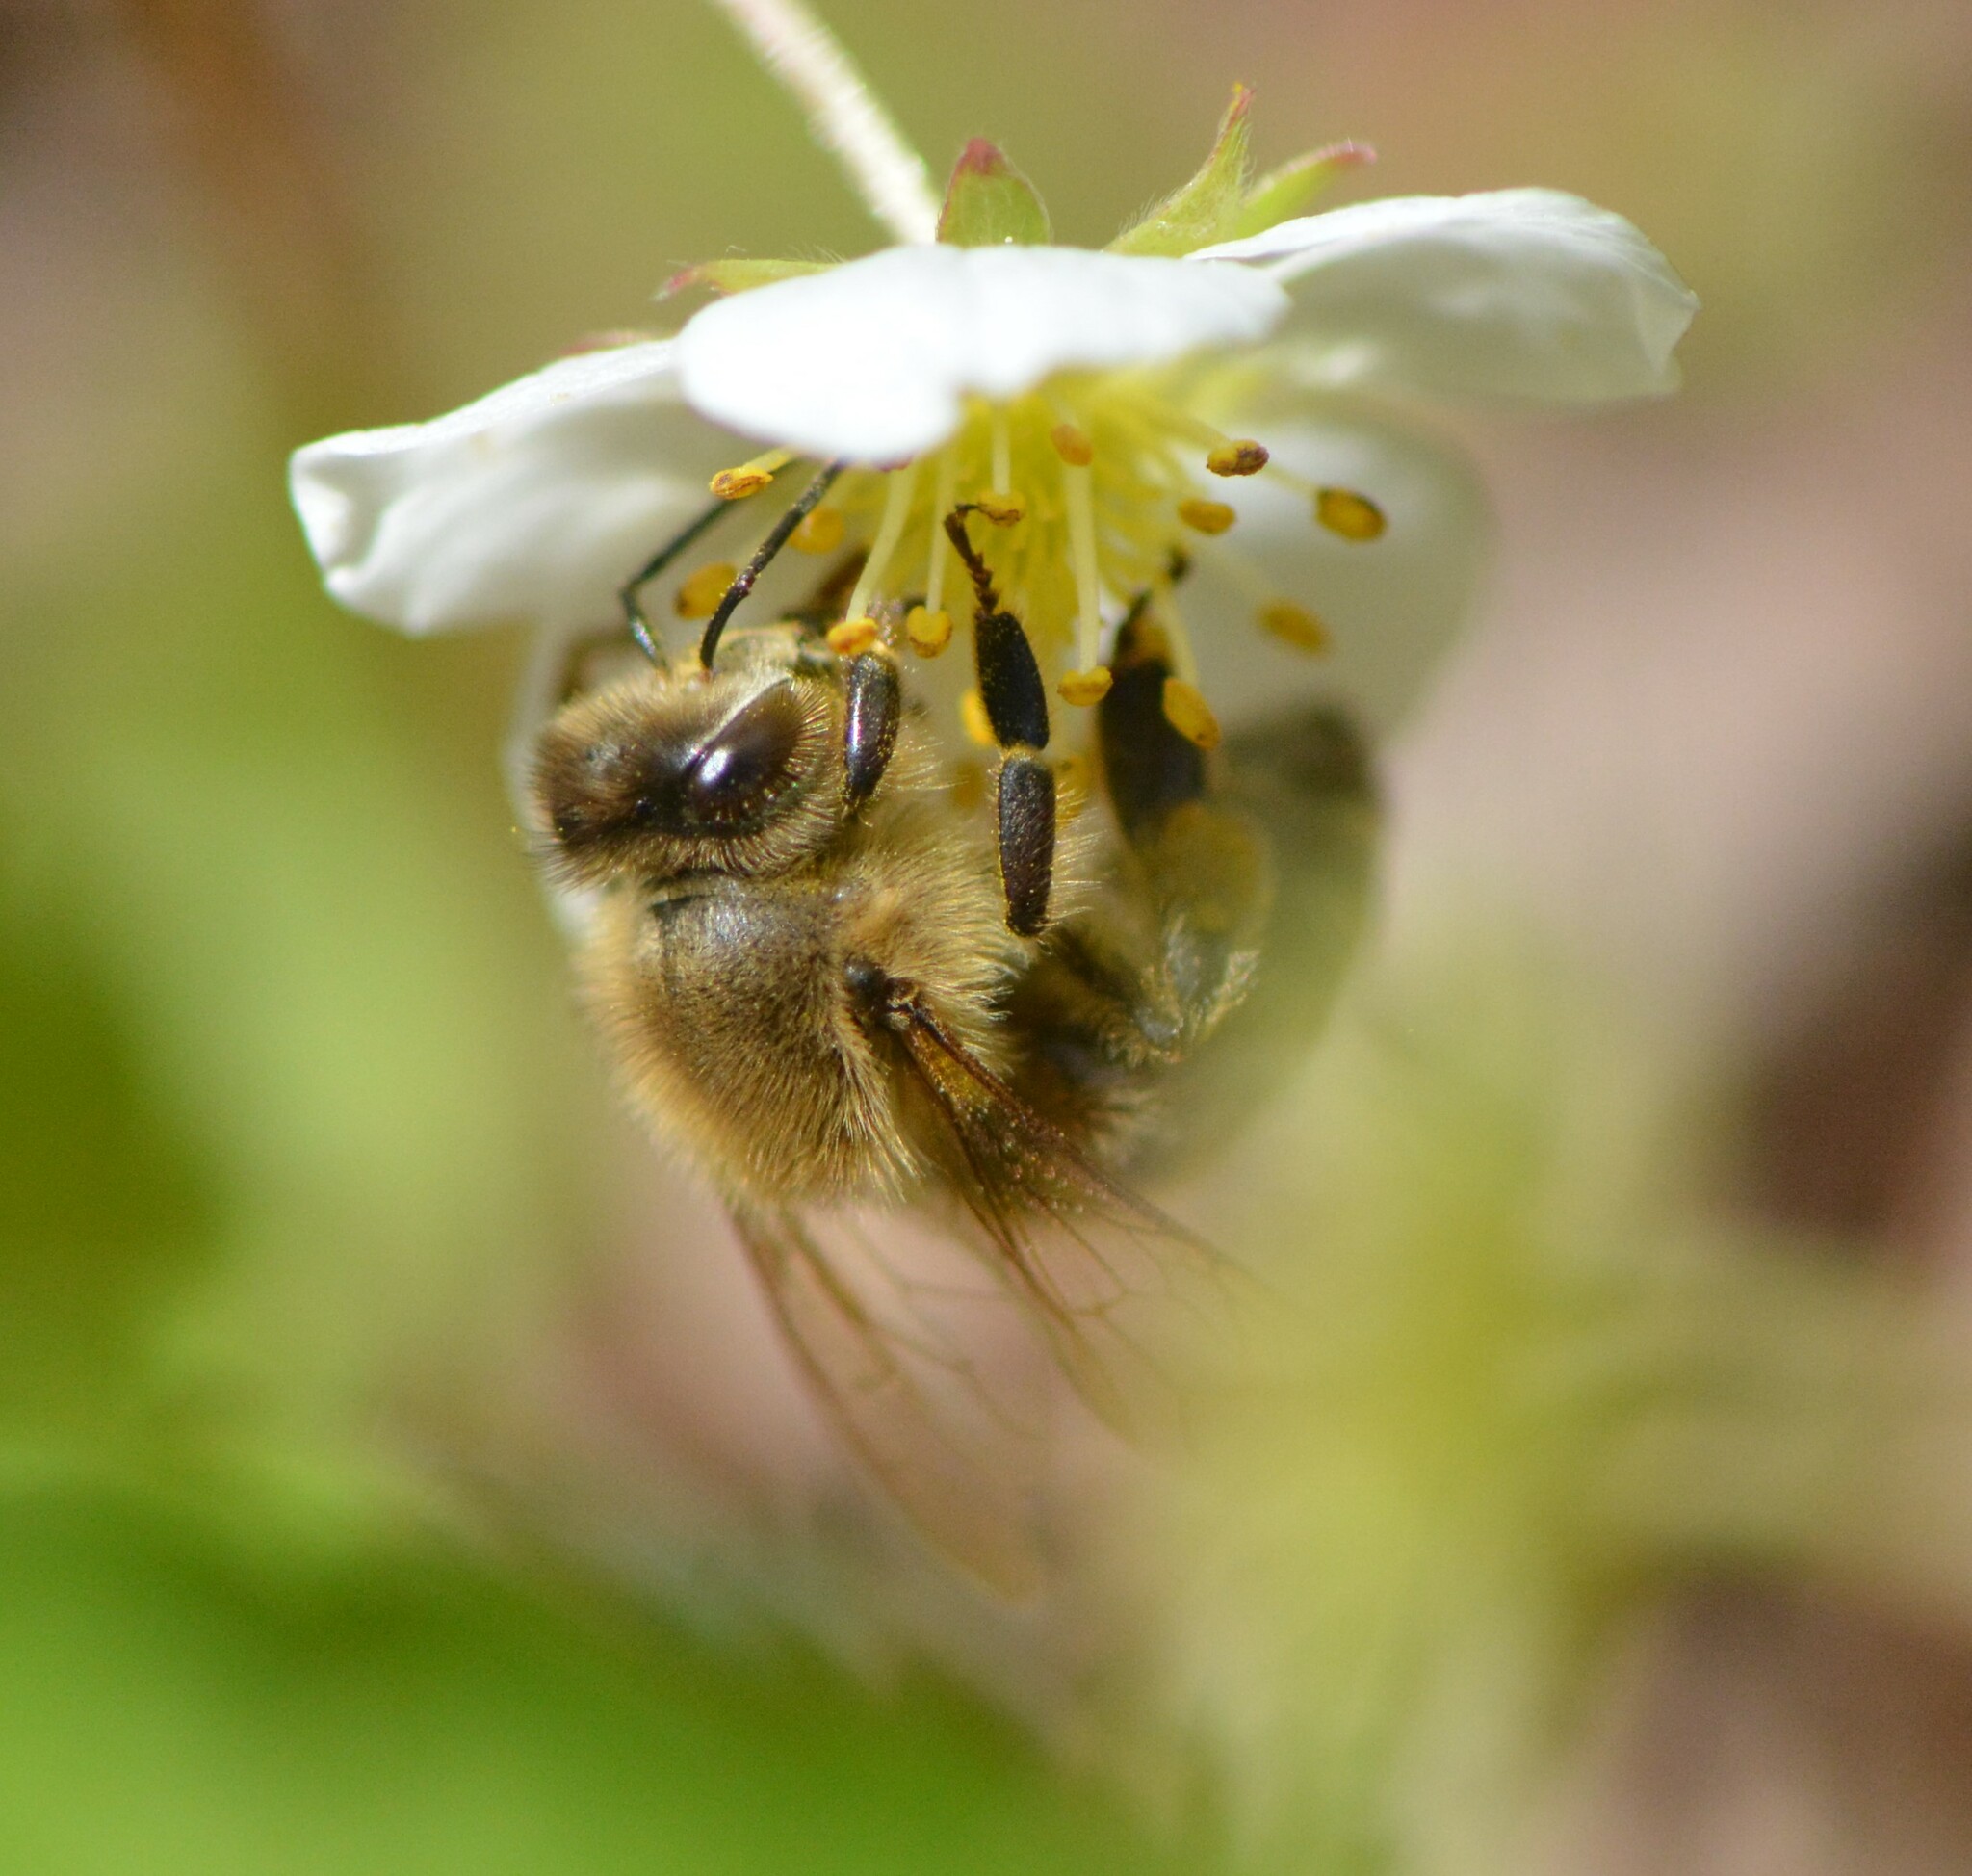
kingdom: Animalia
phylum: Arthropoda
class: Insecta
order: Hymenoptera
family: Apidae
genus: Apis
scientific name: Apis mellifera
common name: Honey bee
